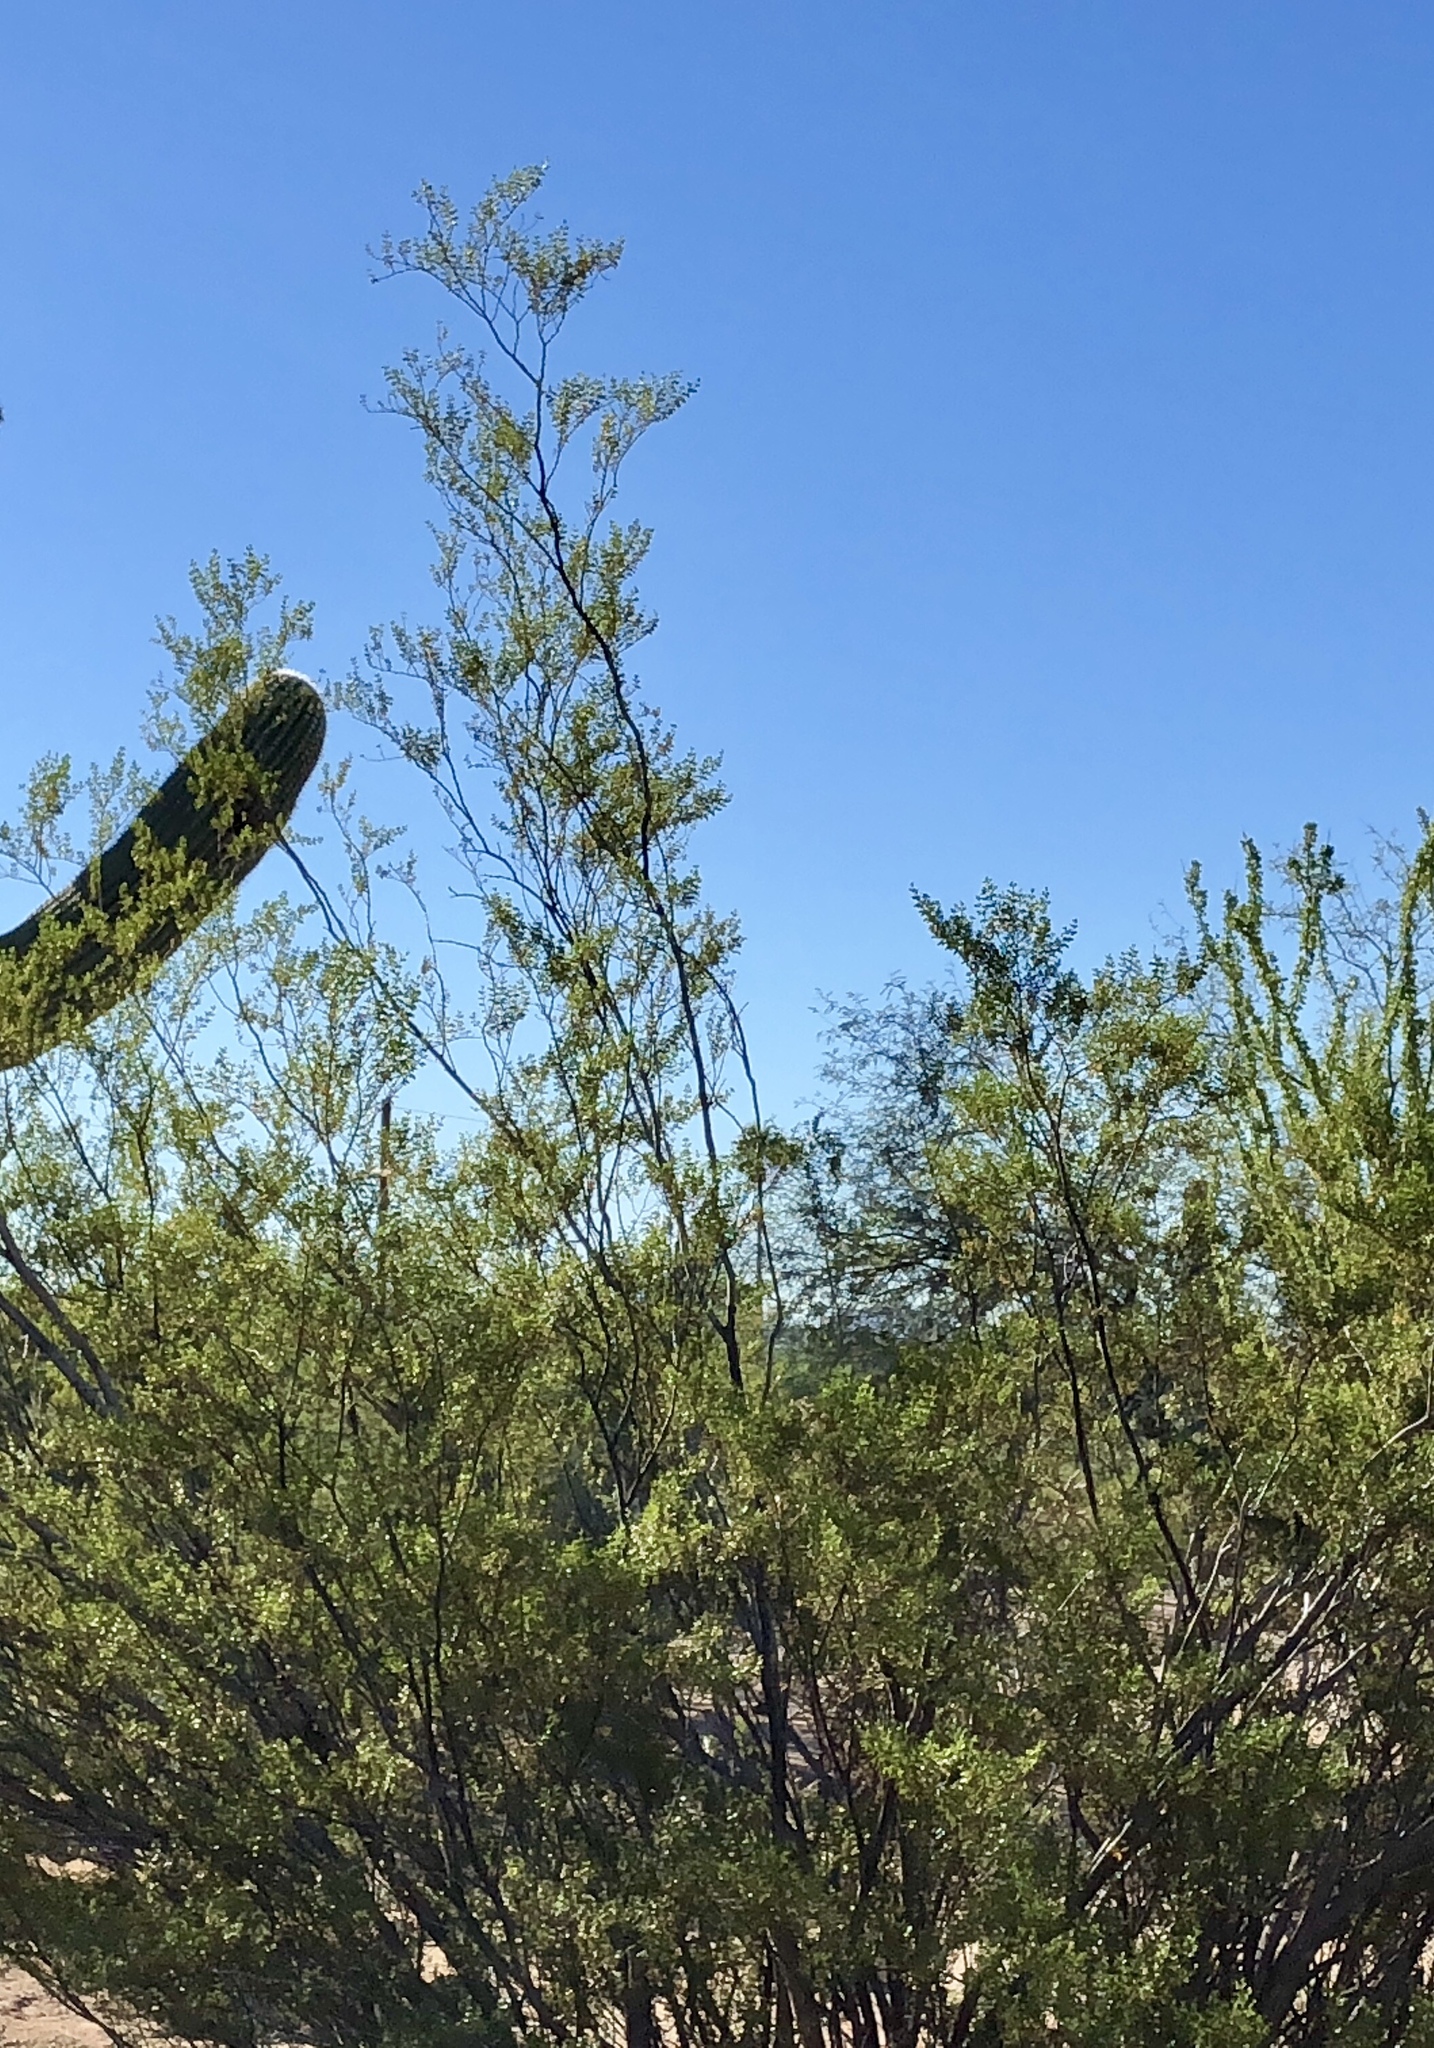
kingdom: Plantae
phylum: Tracheophyta
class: Magnoliopsida
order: Zygophyllales
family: Zygophyllaceae
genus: Larrea
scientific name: Larrea tridentata
